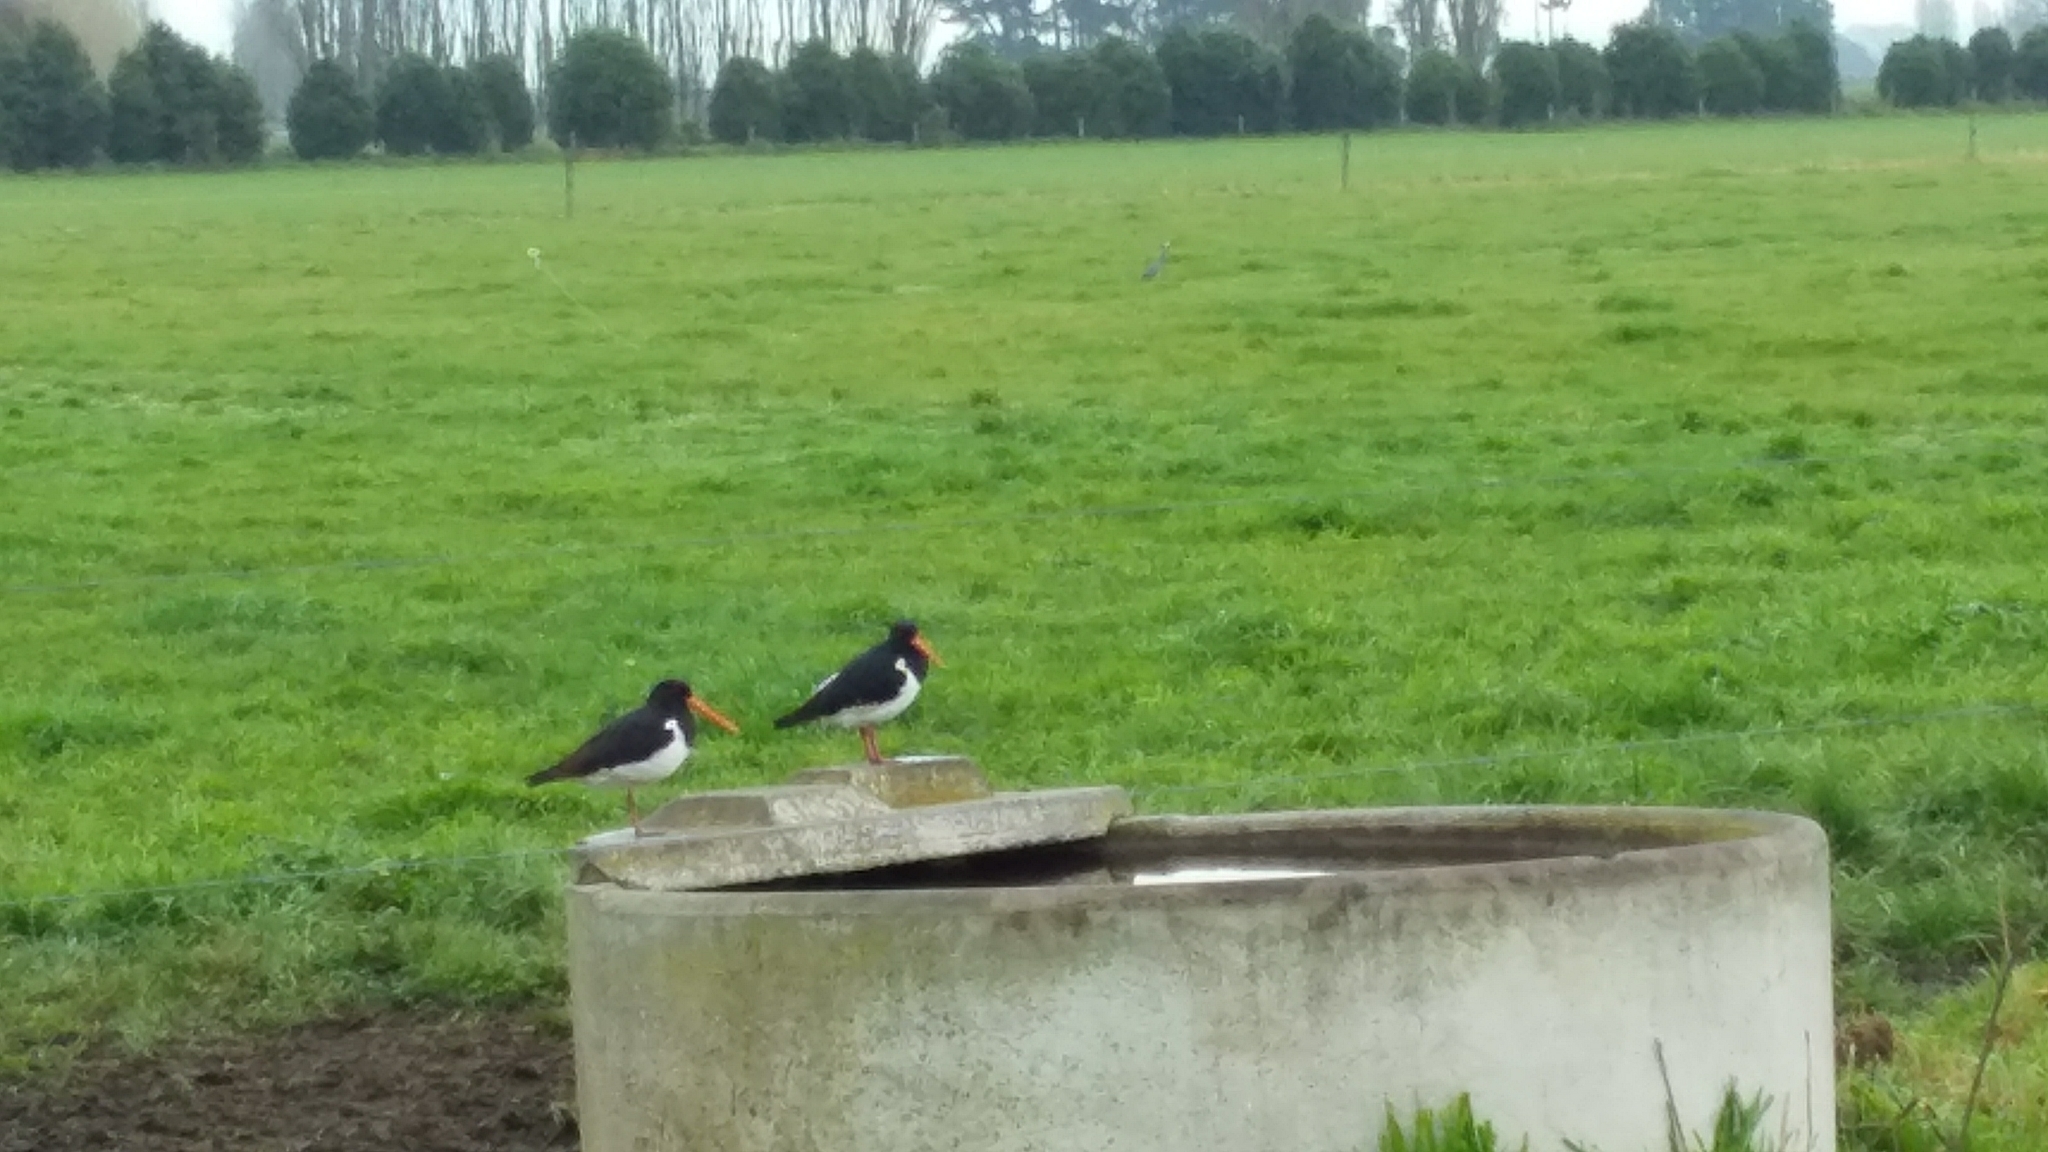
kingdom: Animalia
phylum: Chordata
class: Aves
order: Charadriiformes
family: Haematopodidae
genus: Haematopus
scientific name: Haematopus finschi
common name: South island oystercatcher
